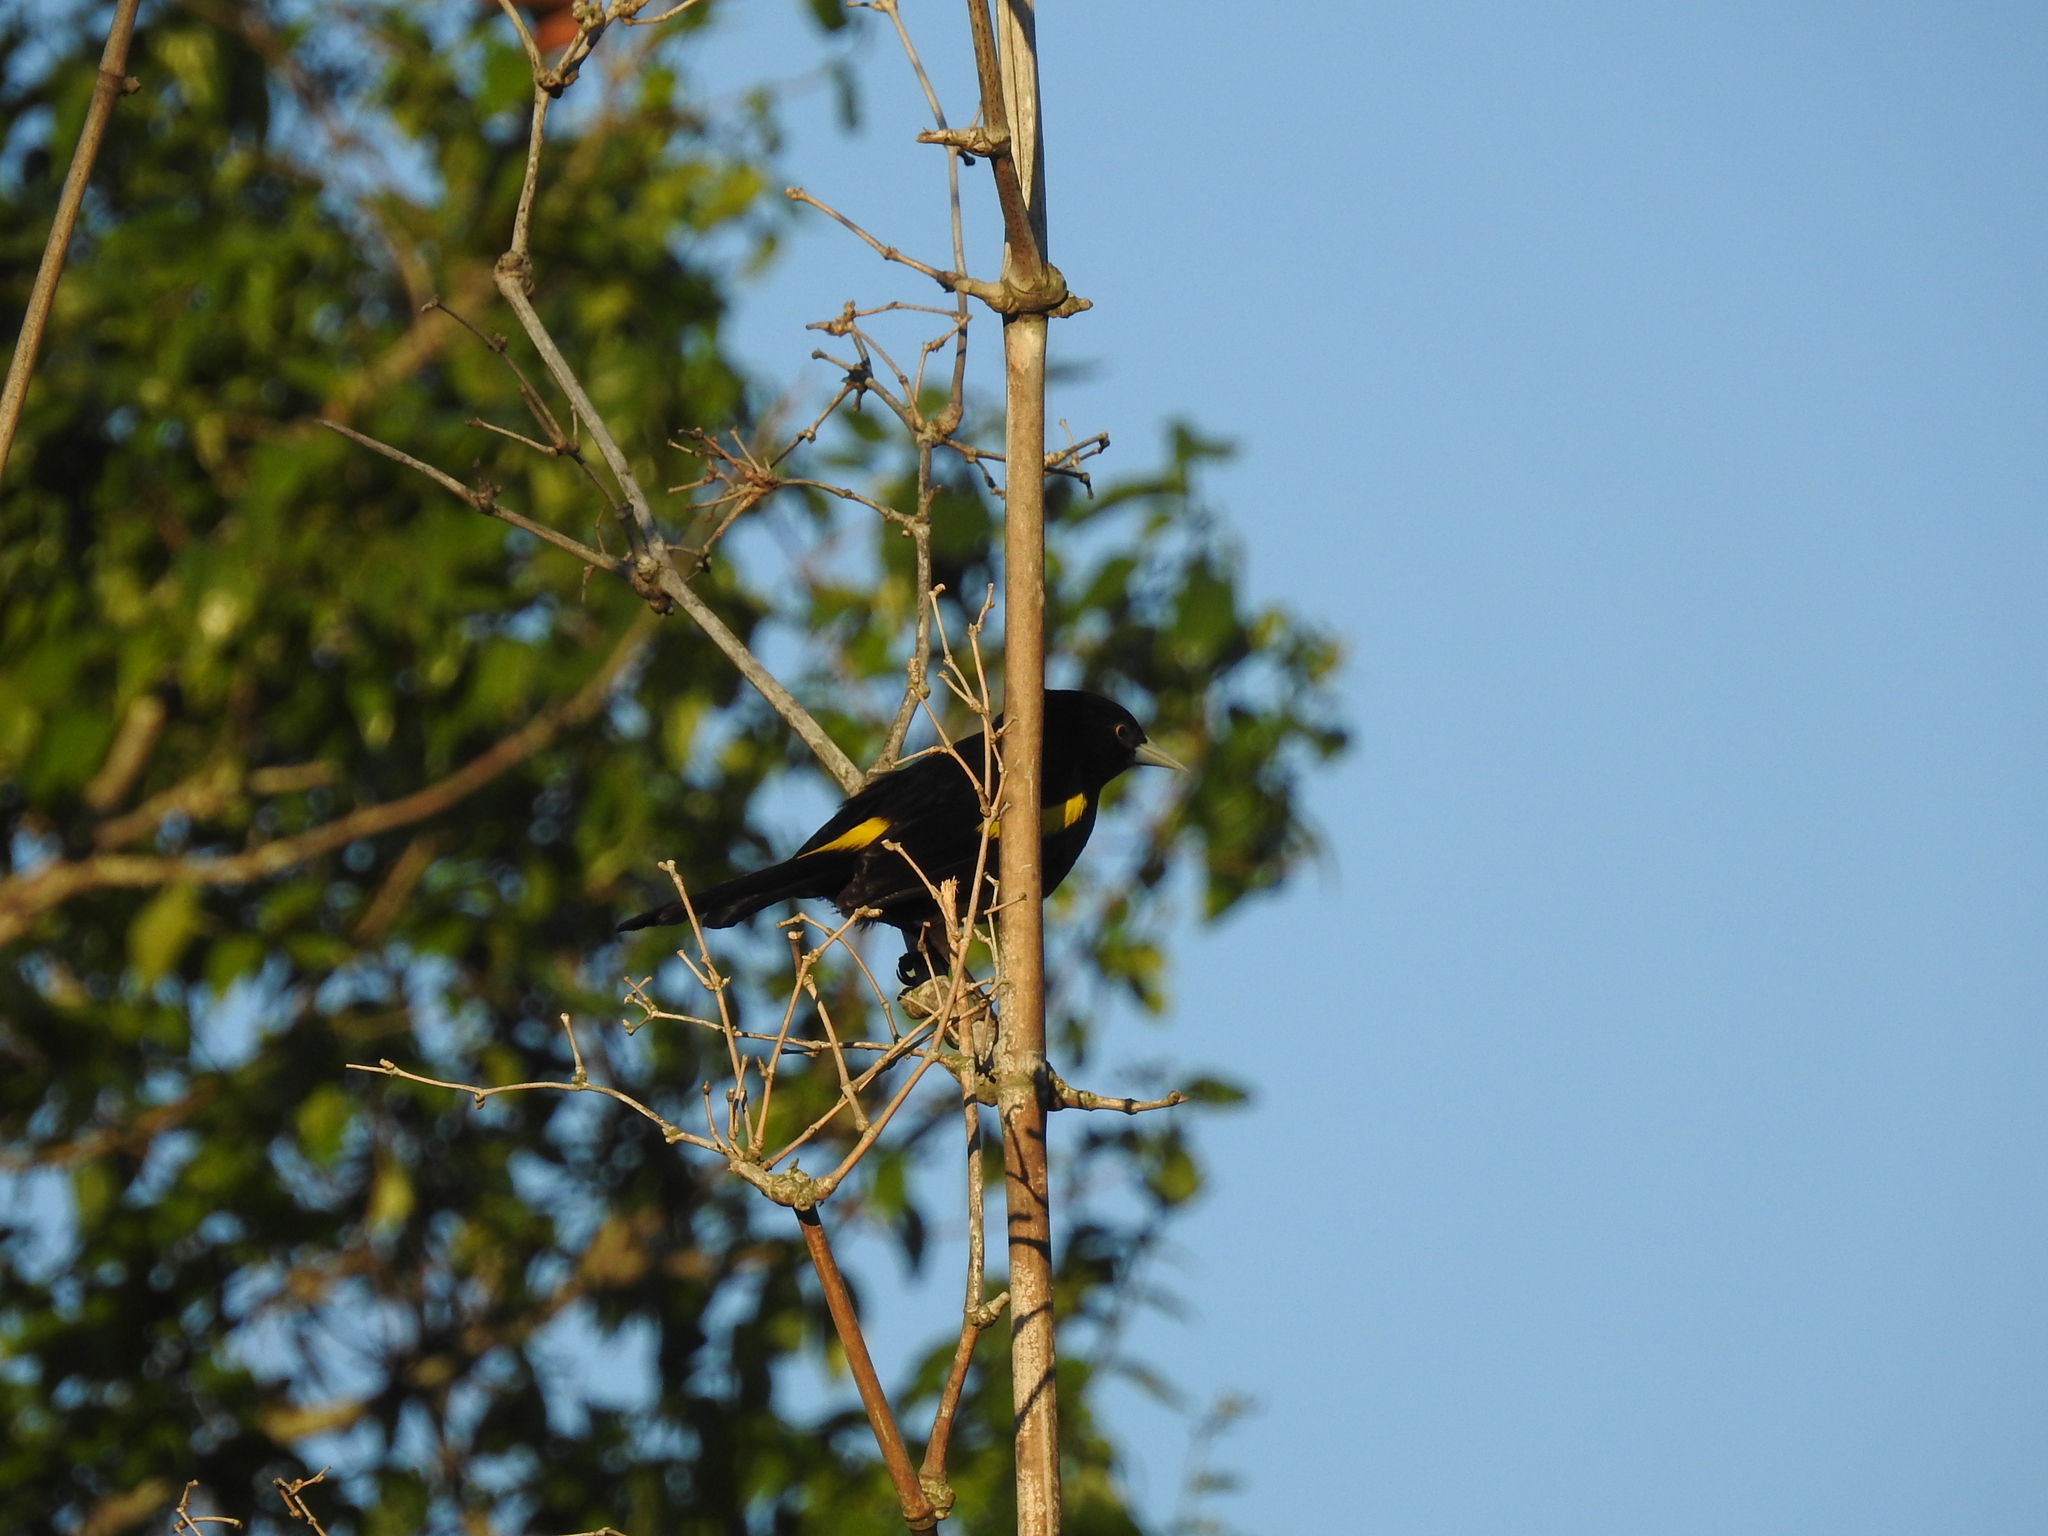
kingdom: Animalia
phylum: Chordata
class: Aves
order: Passeriformes
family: Icteridae
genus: Cacicus
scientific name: Cacicus chrysopterus
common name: Golden-winged cacique
